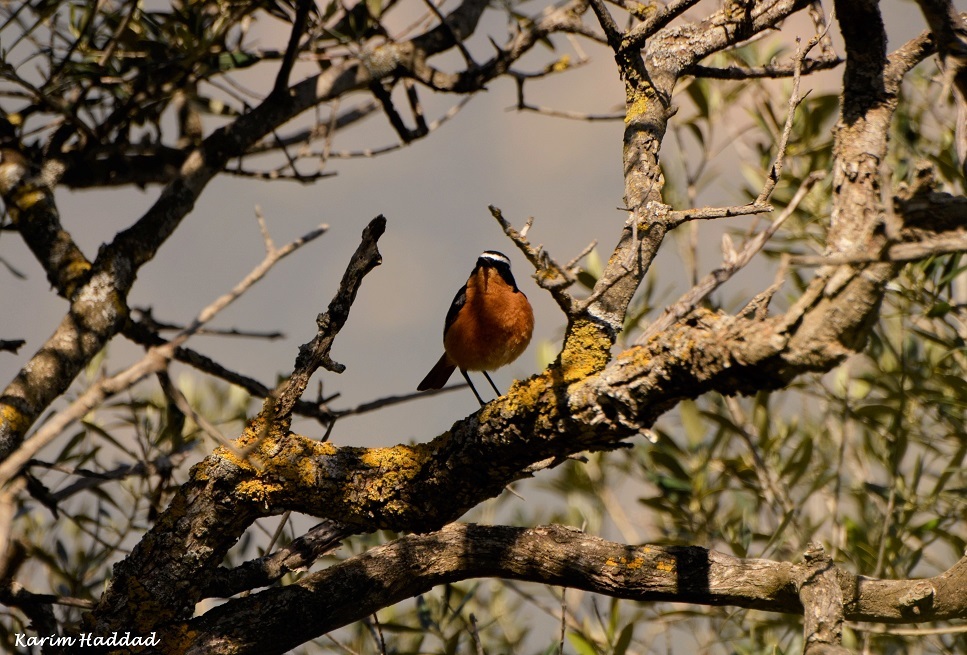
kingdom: Animalia
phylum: Chordata
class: Aves
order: Passeriformes
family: Muscicapidae
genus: Phoenicurus
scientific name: Phoenicurus moussieri
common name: Moussier's redstart
